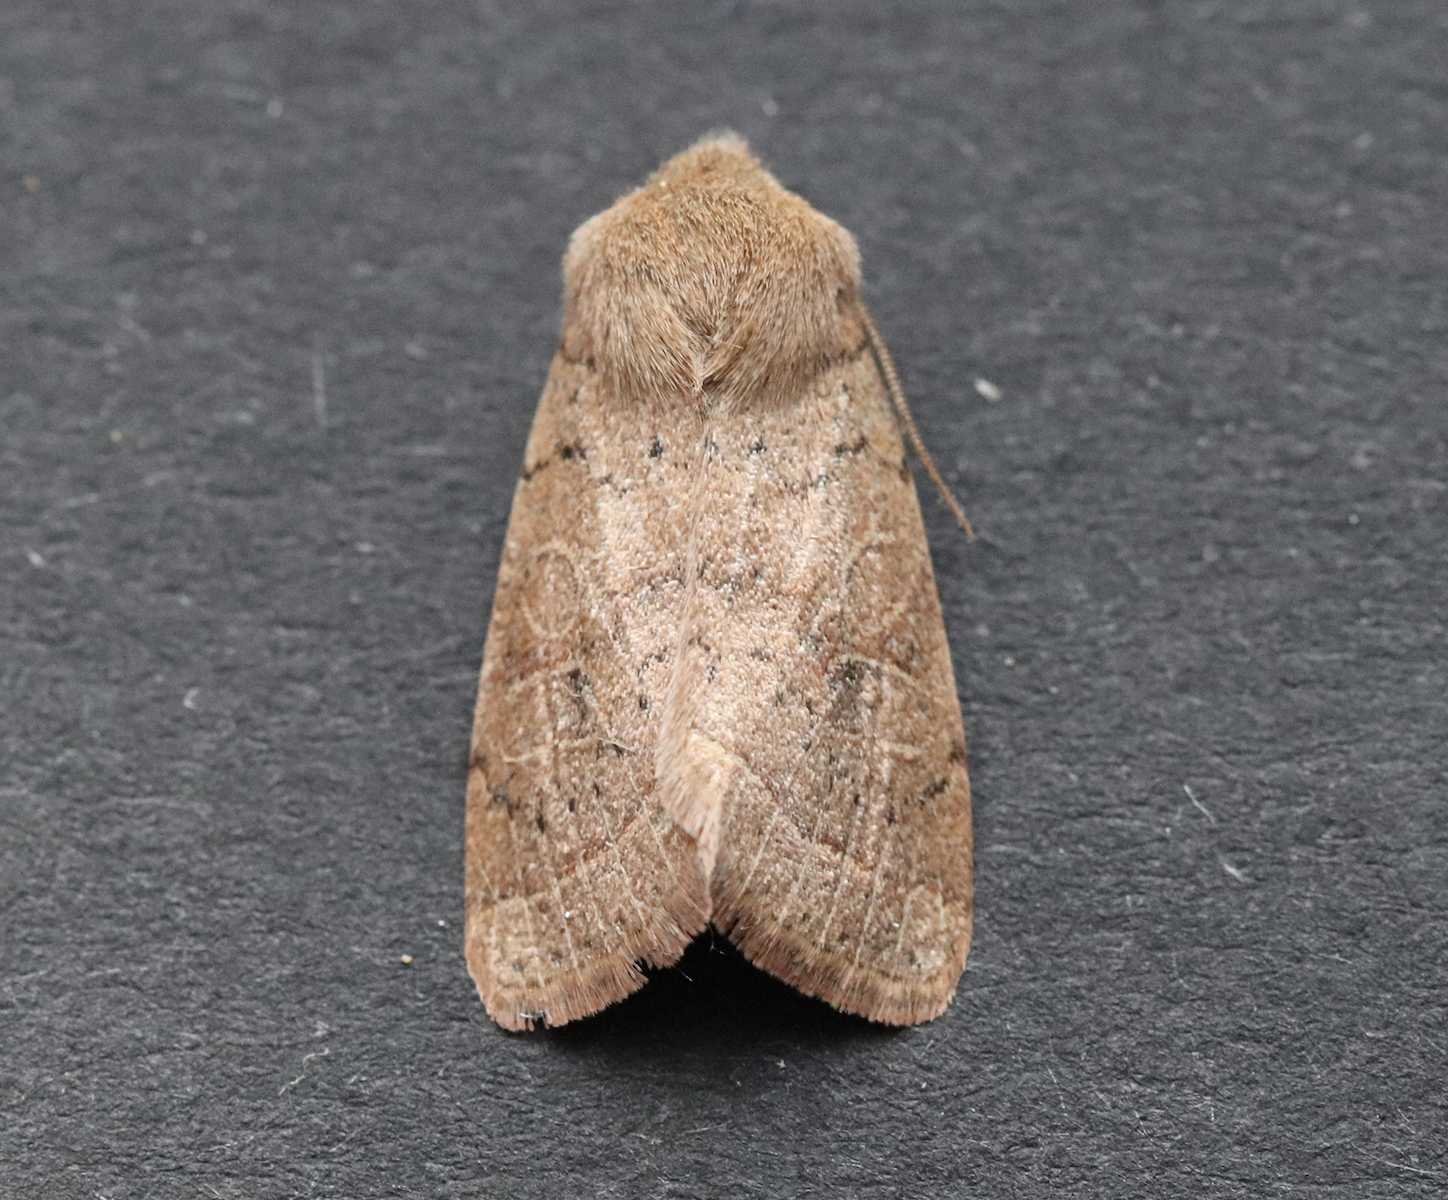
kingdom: Animalia
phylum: Arthropoda
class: Insecta
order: Lepidoptera
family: Noctuidae
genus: Orthosia
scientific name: Orthosia cerasi
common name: Common quaker
